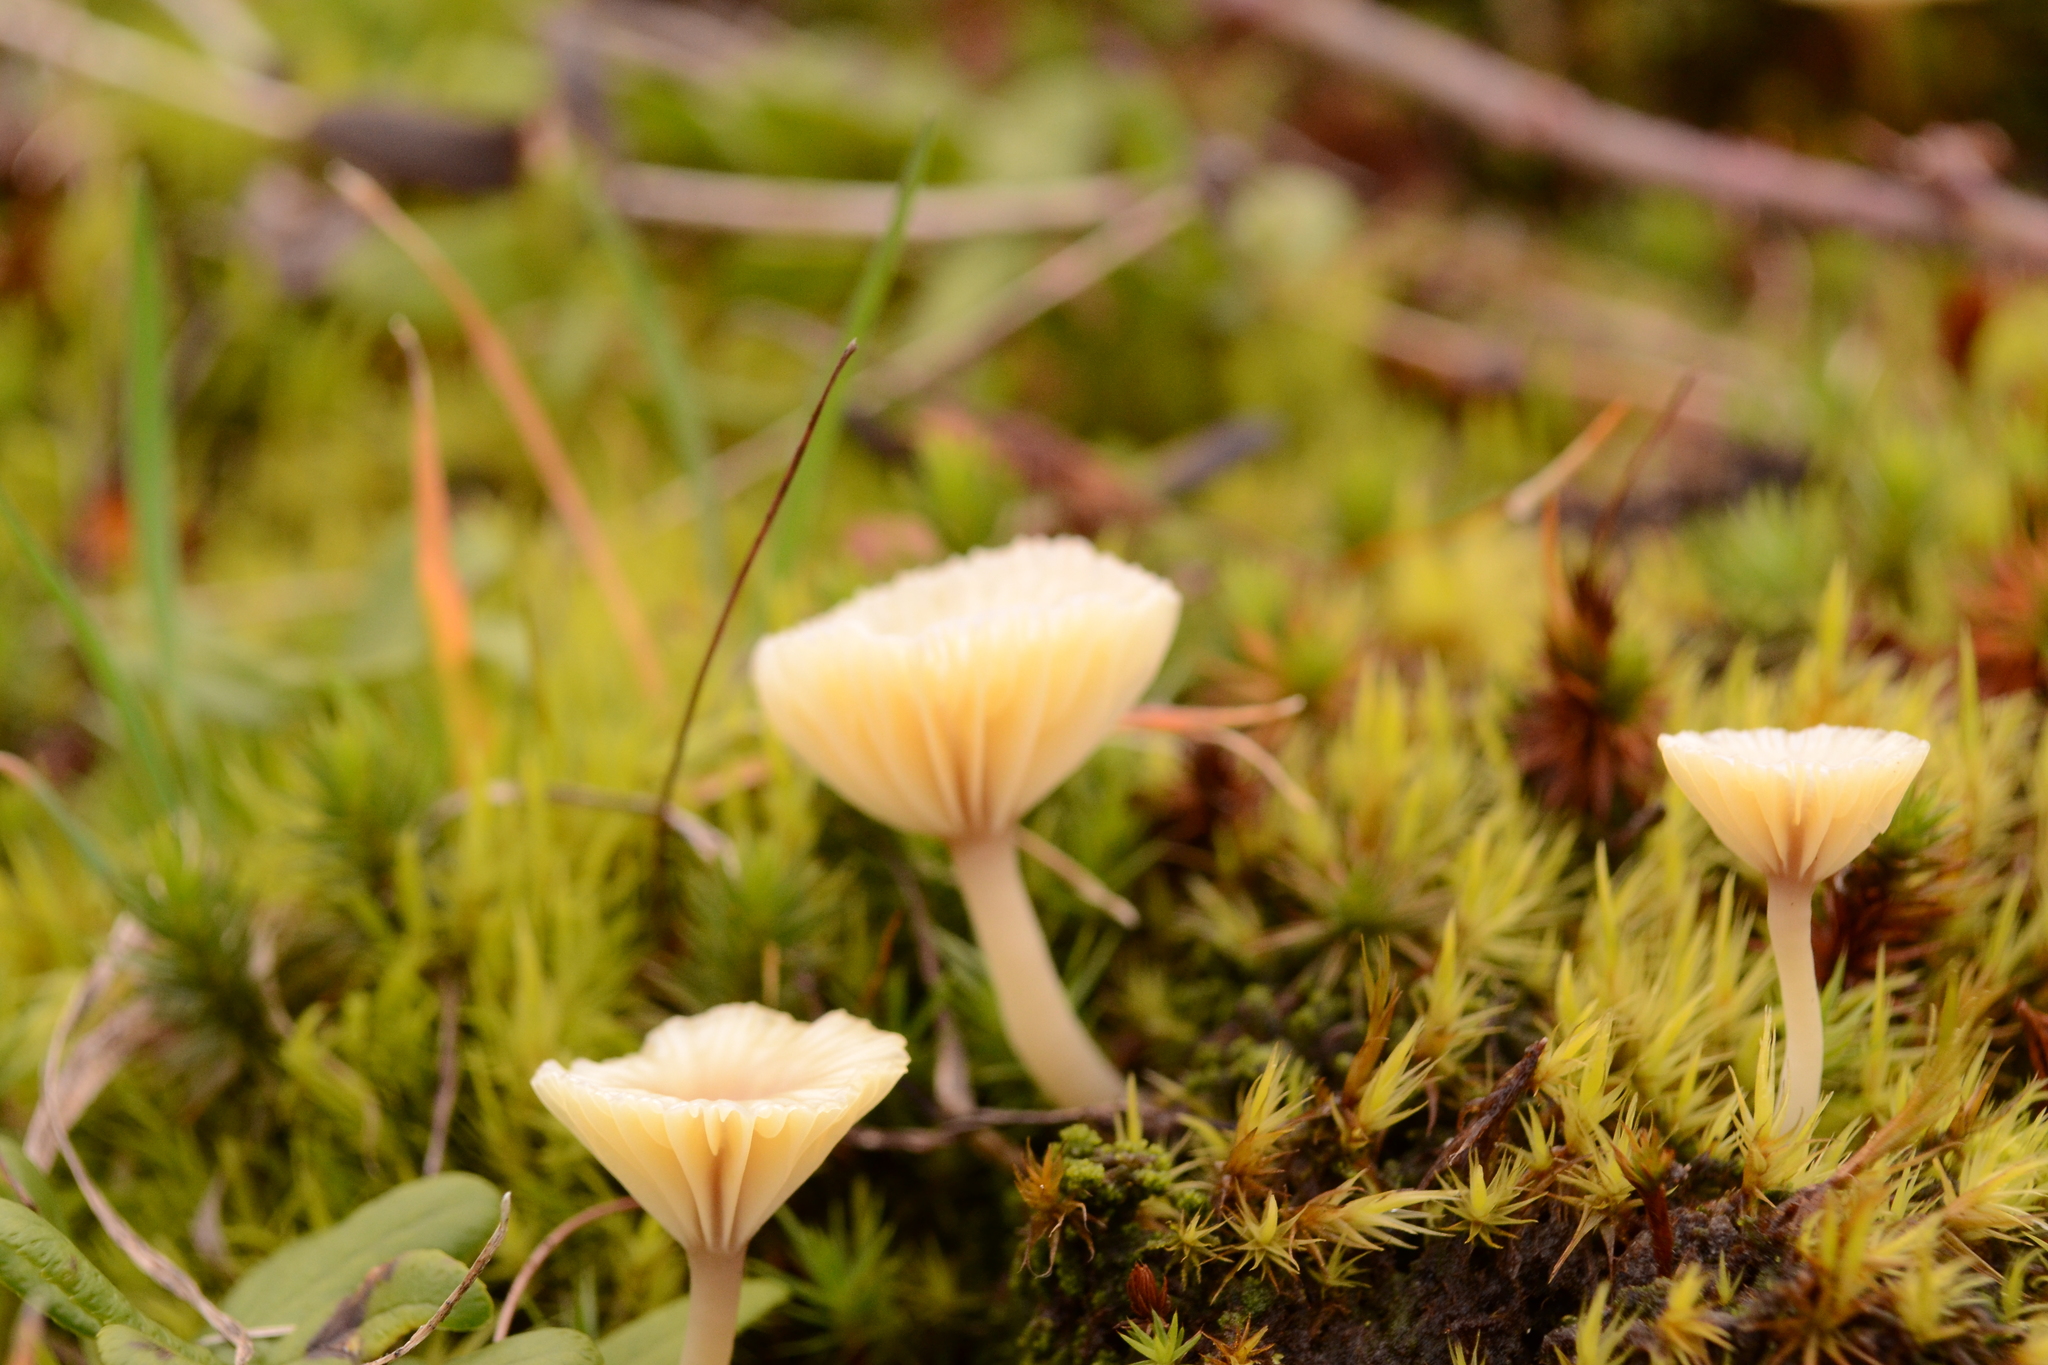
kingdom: Fungi
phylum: Basidiomycota
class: Agaricomycetes
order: Agaricales
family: Hygrophoraceae
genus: Lichenomphalia
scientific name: Lichenomphalia
